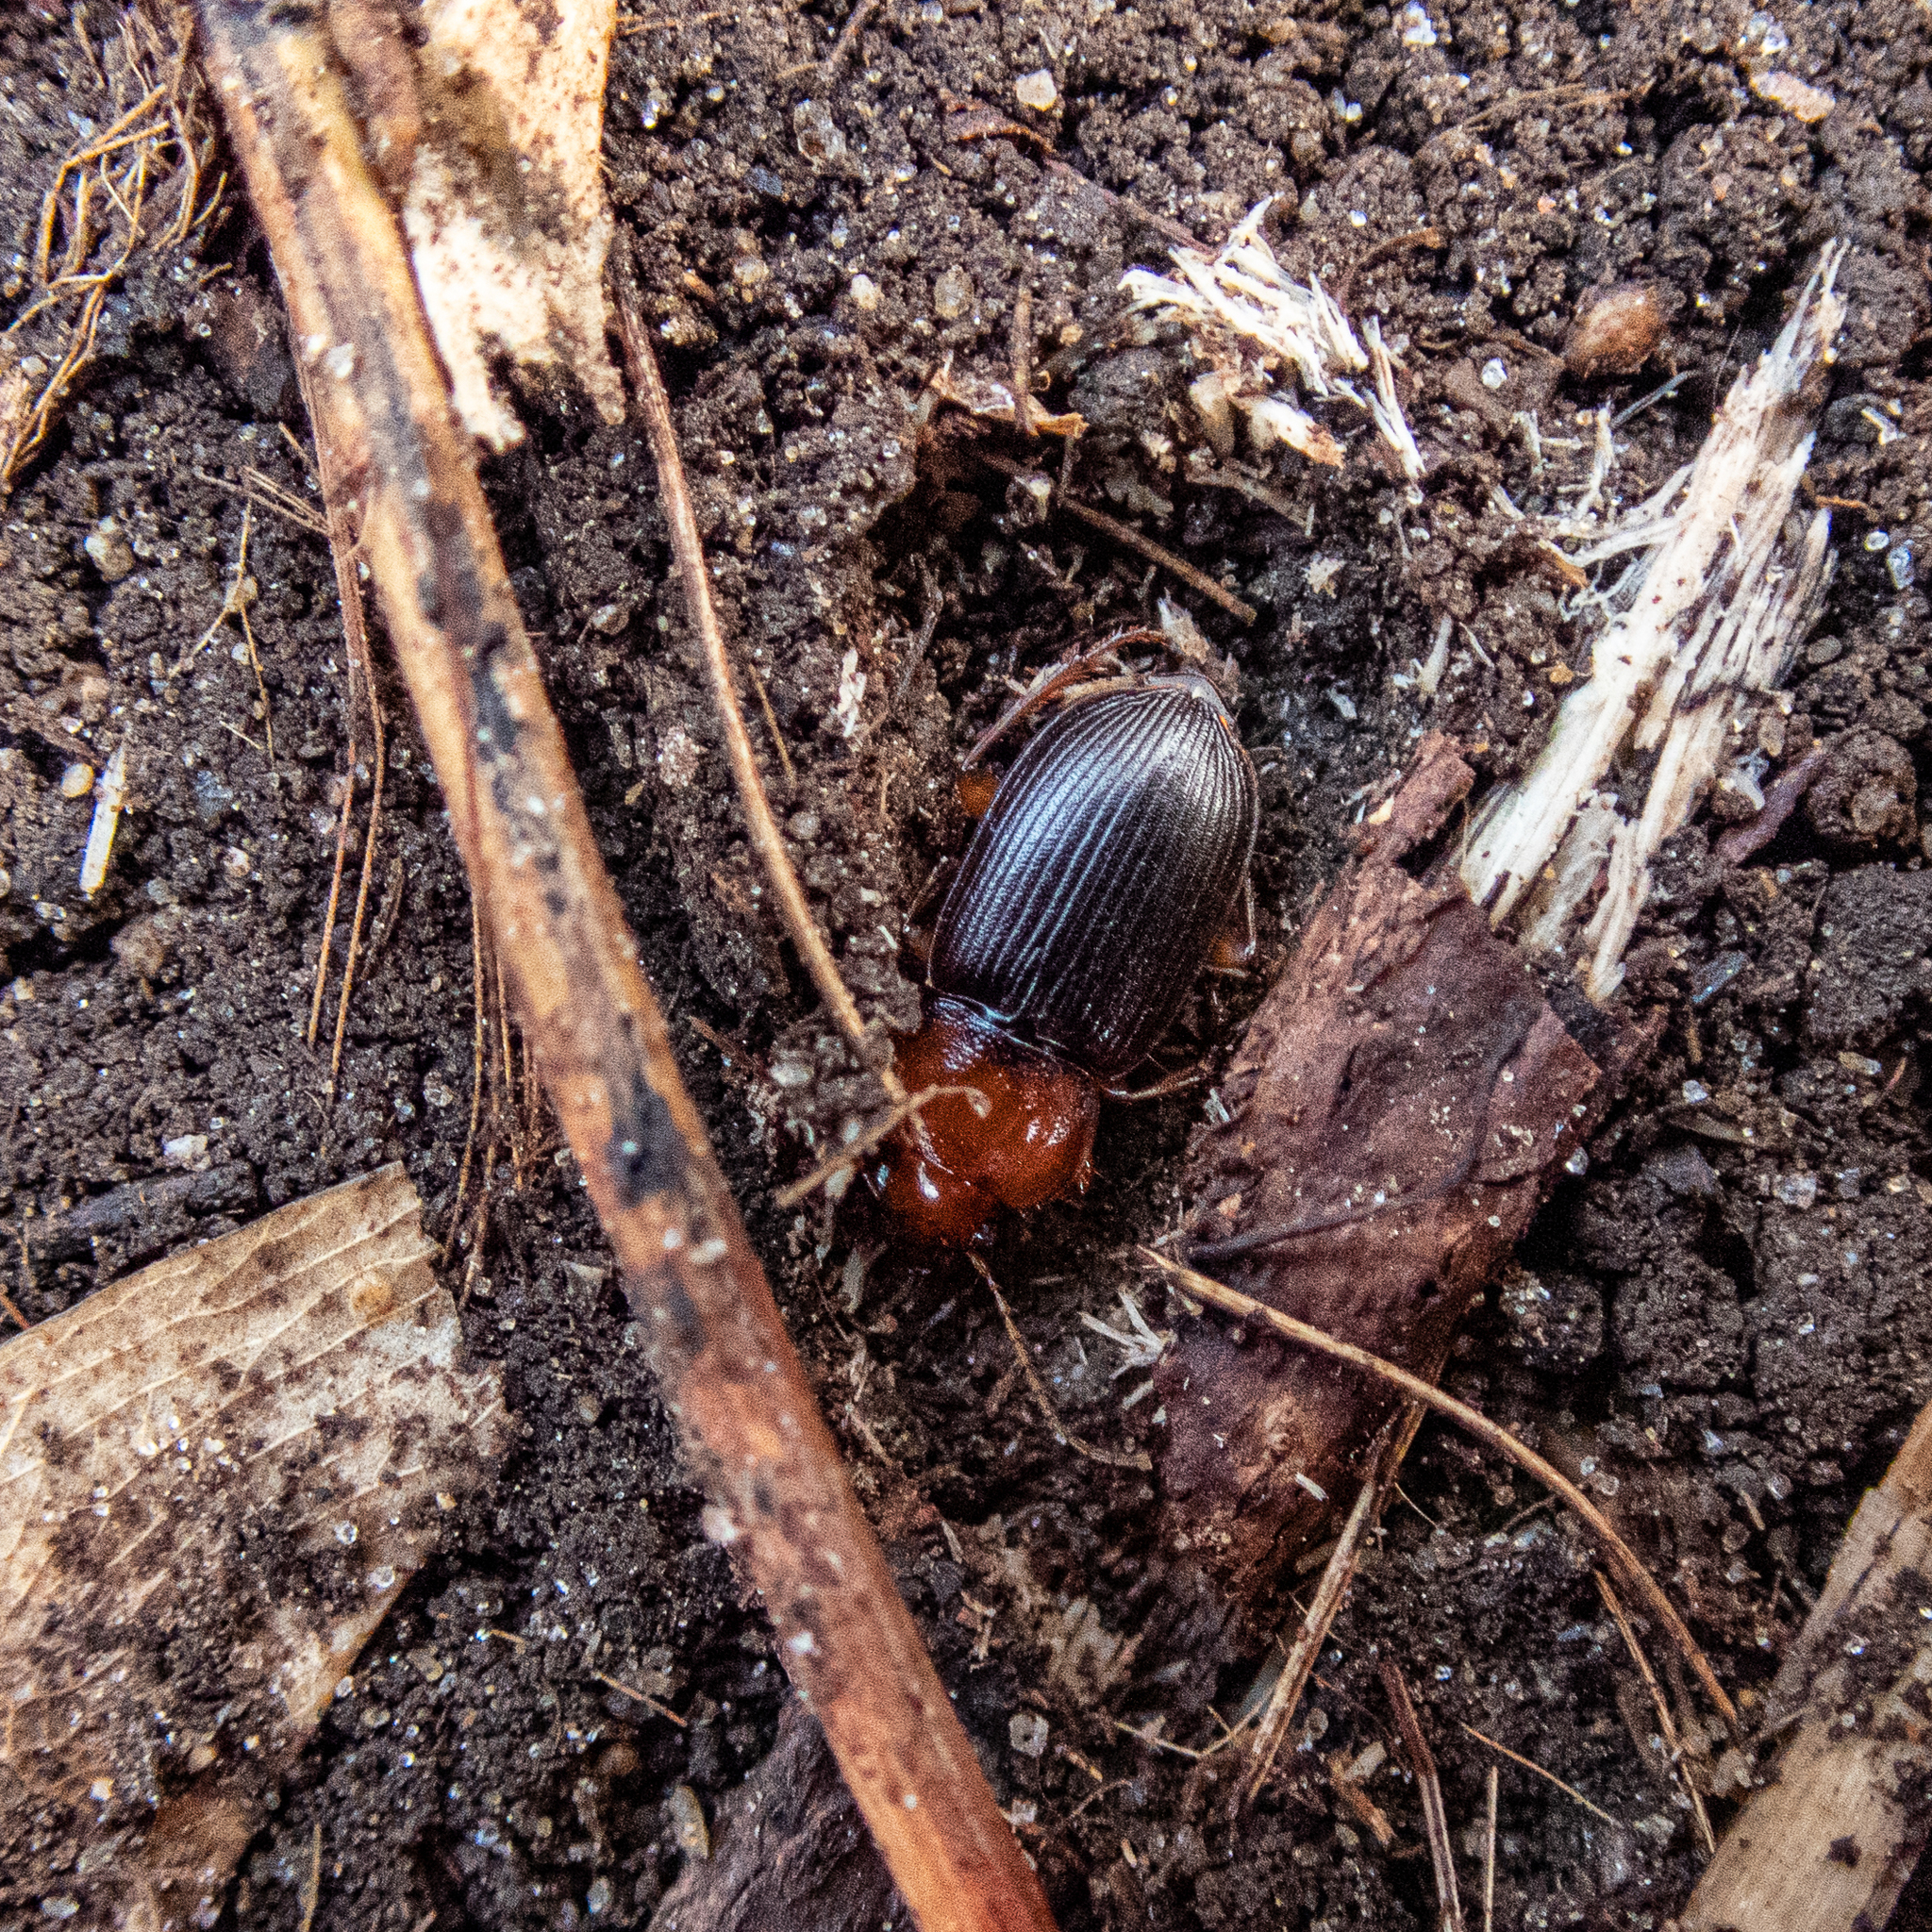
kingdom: Animalia
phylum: Arthropoda
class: Insecta
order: Coleoptera
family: Carabidae
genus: Amphasia
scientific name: Amphasia interstitialis
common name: Red-headed ground beetle
